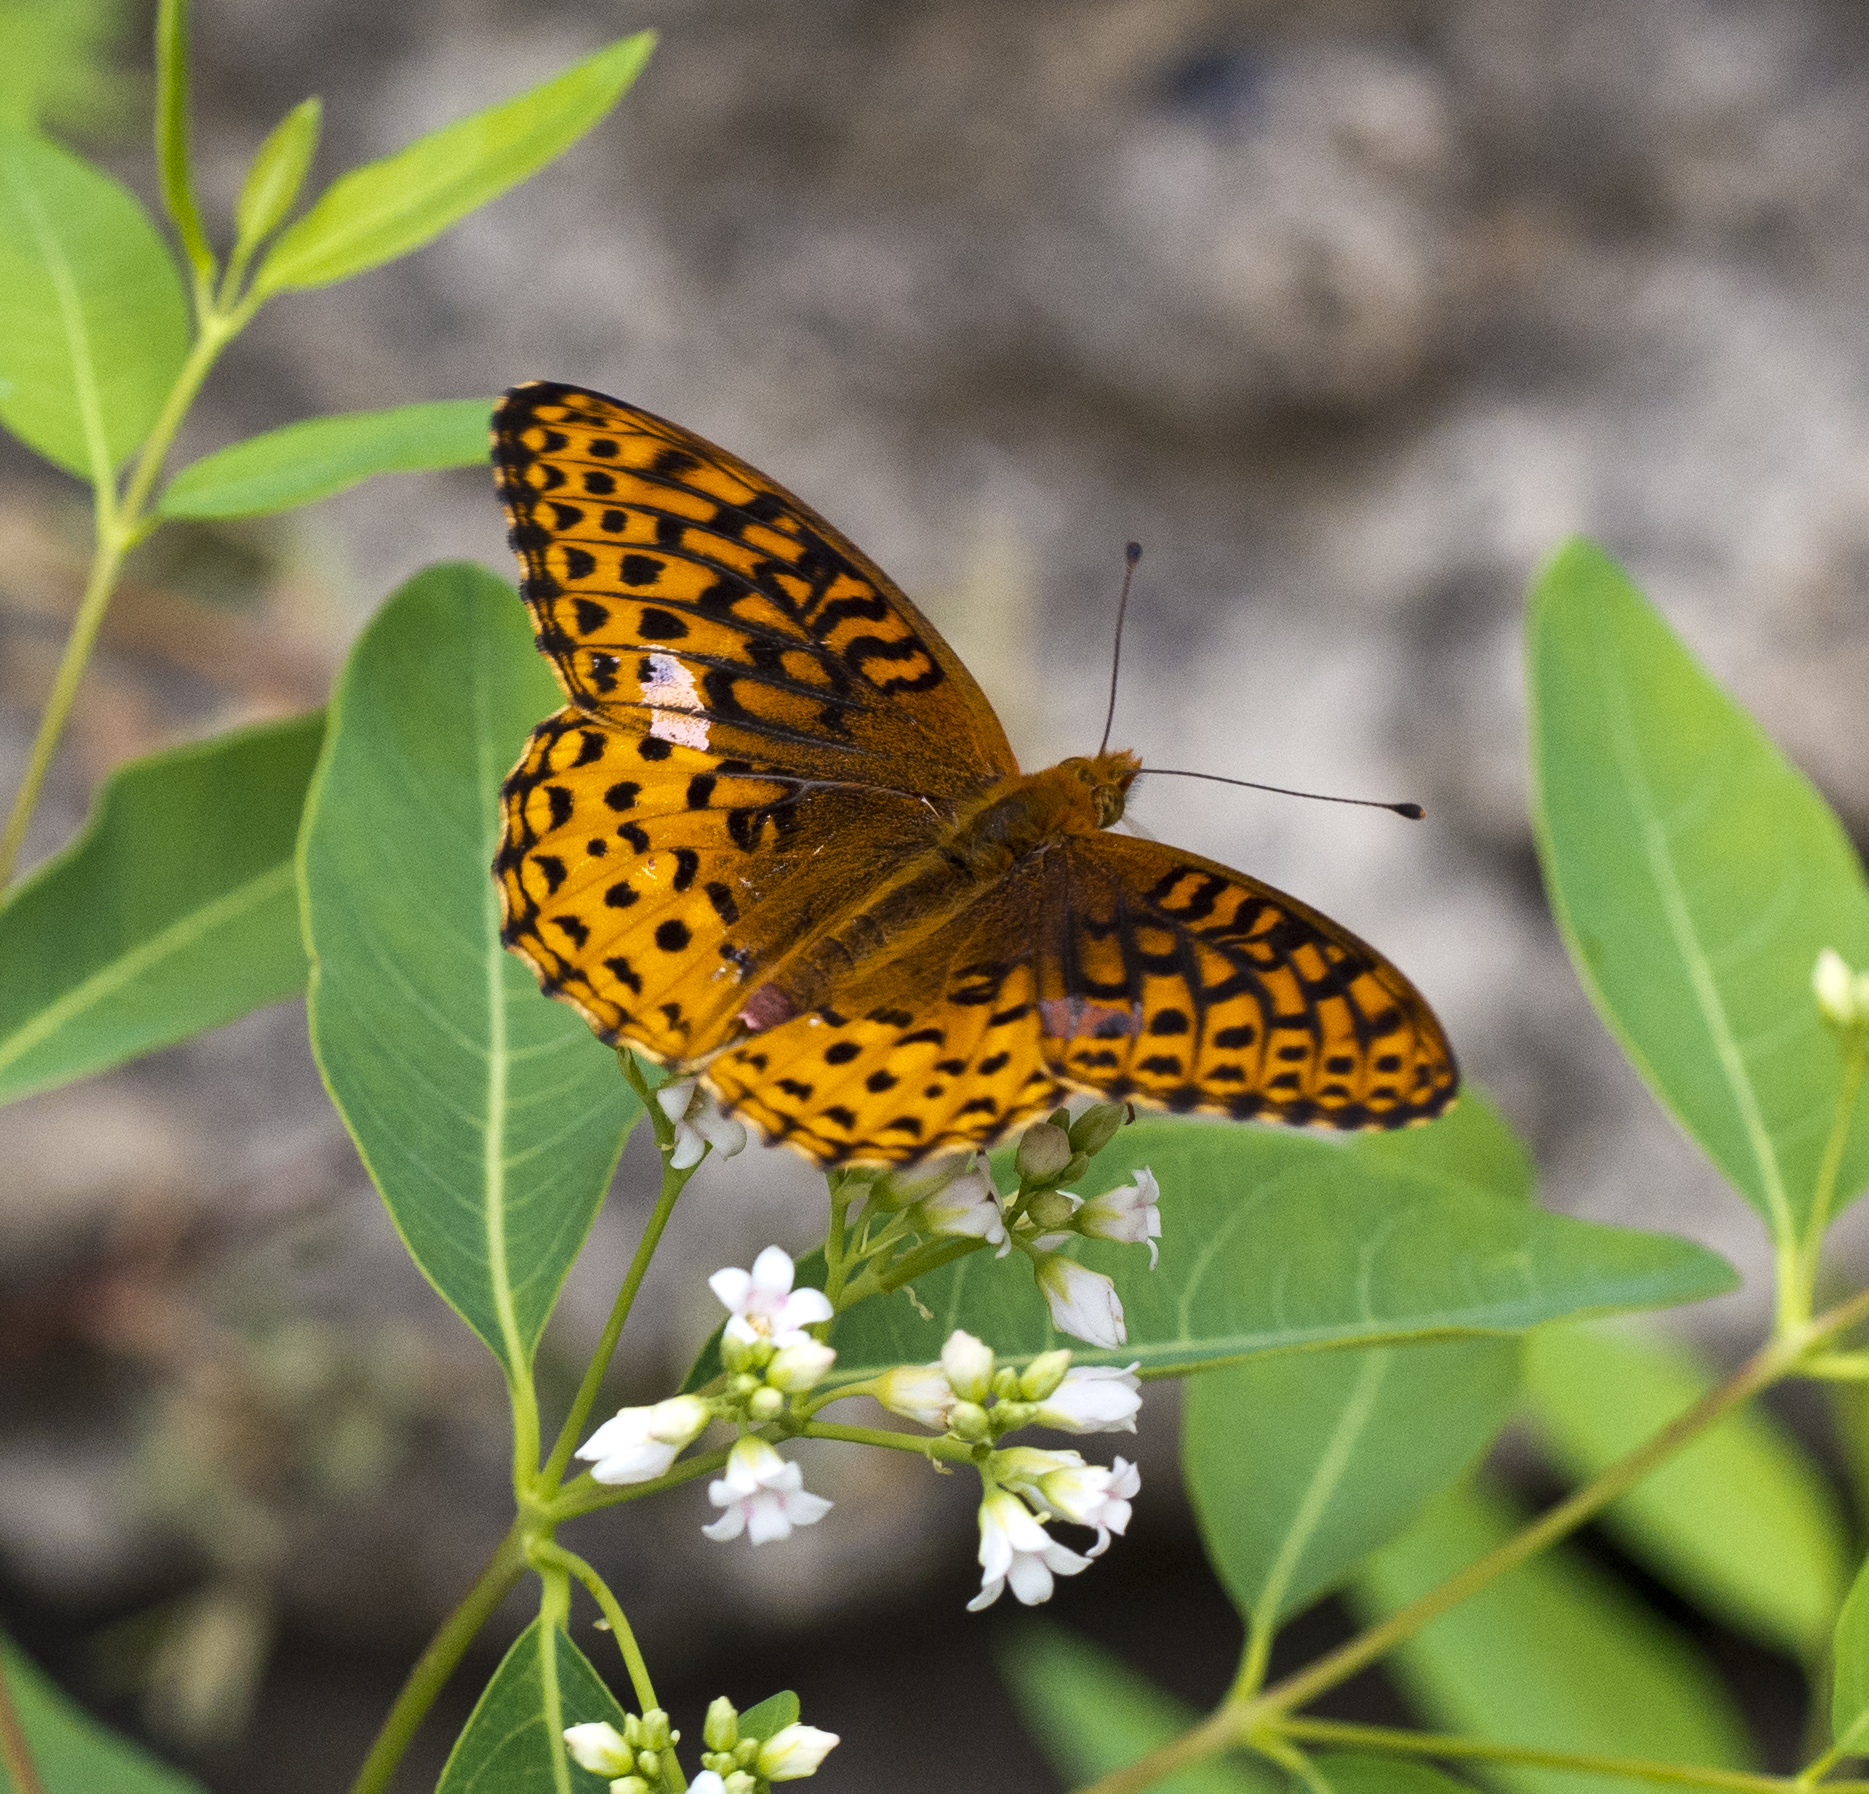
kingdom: Animalia
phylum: Arthropoda
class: Insecta
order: Lepidoptera
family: Nymphalidae
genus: Speyeria
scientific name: Speyeria atlantis
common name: Atlantis fritillary
